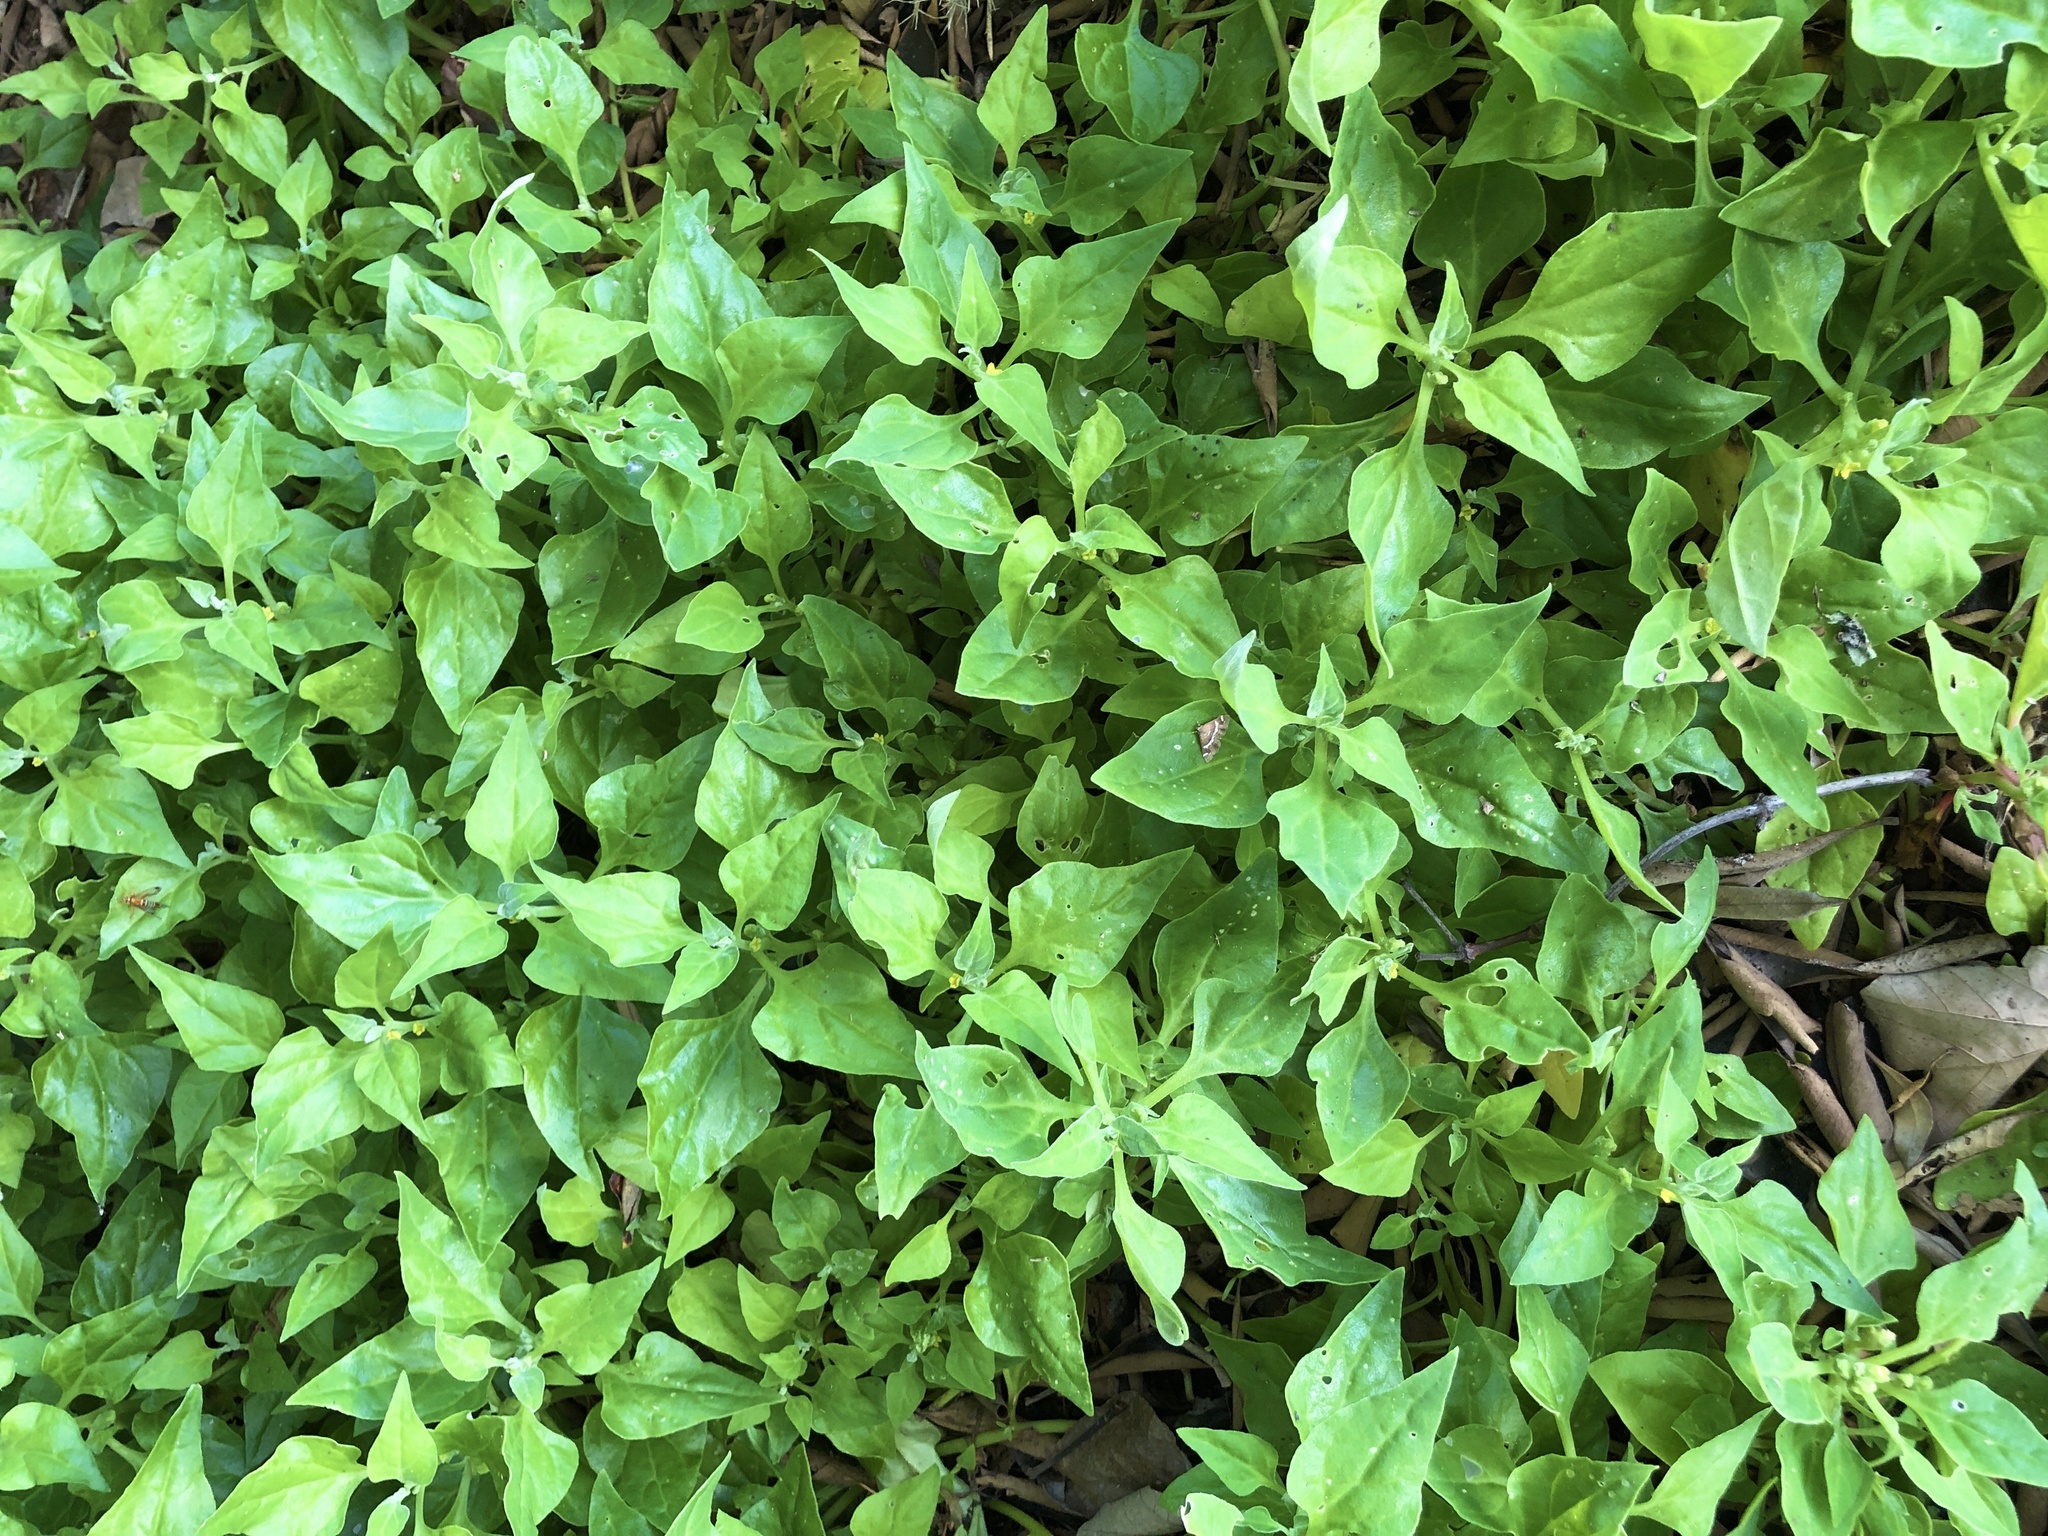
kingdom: Plantae
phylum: Tracheophyta
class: Magnoliopsida
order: Caryophyllales
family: Aizoaceae
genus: Tetragonia
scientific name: Tetragonia tetragonoides
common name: New zealand-spinach
